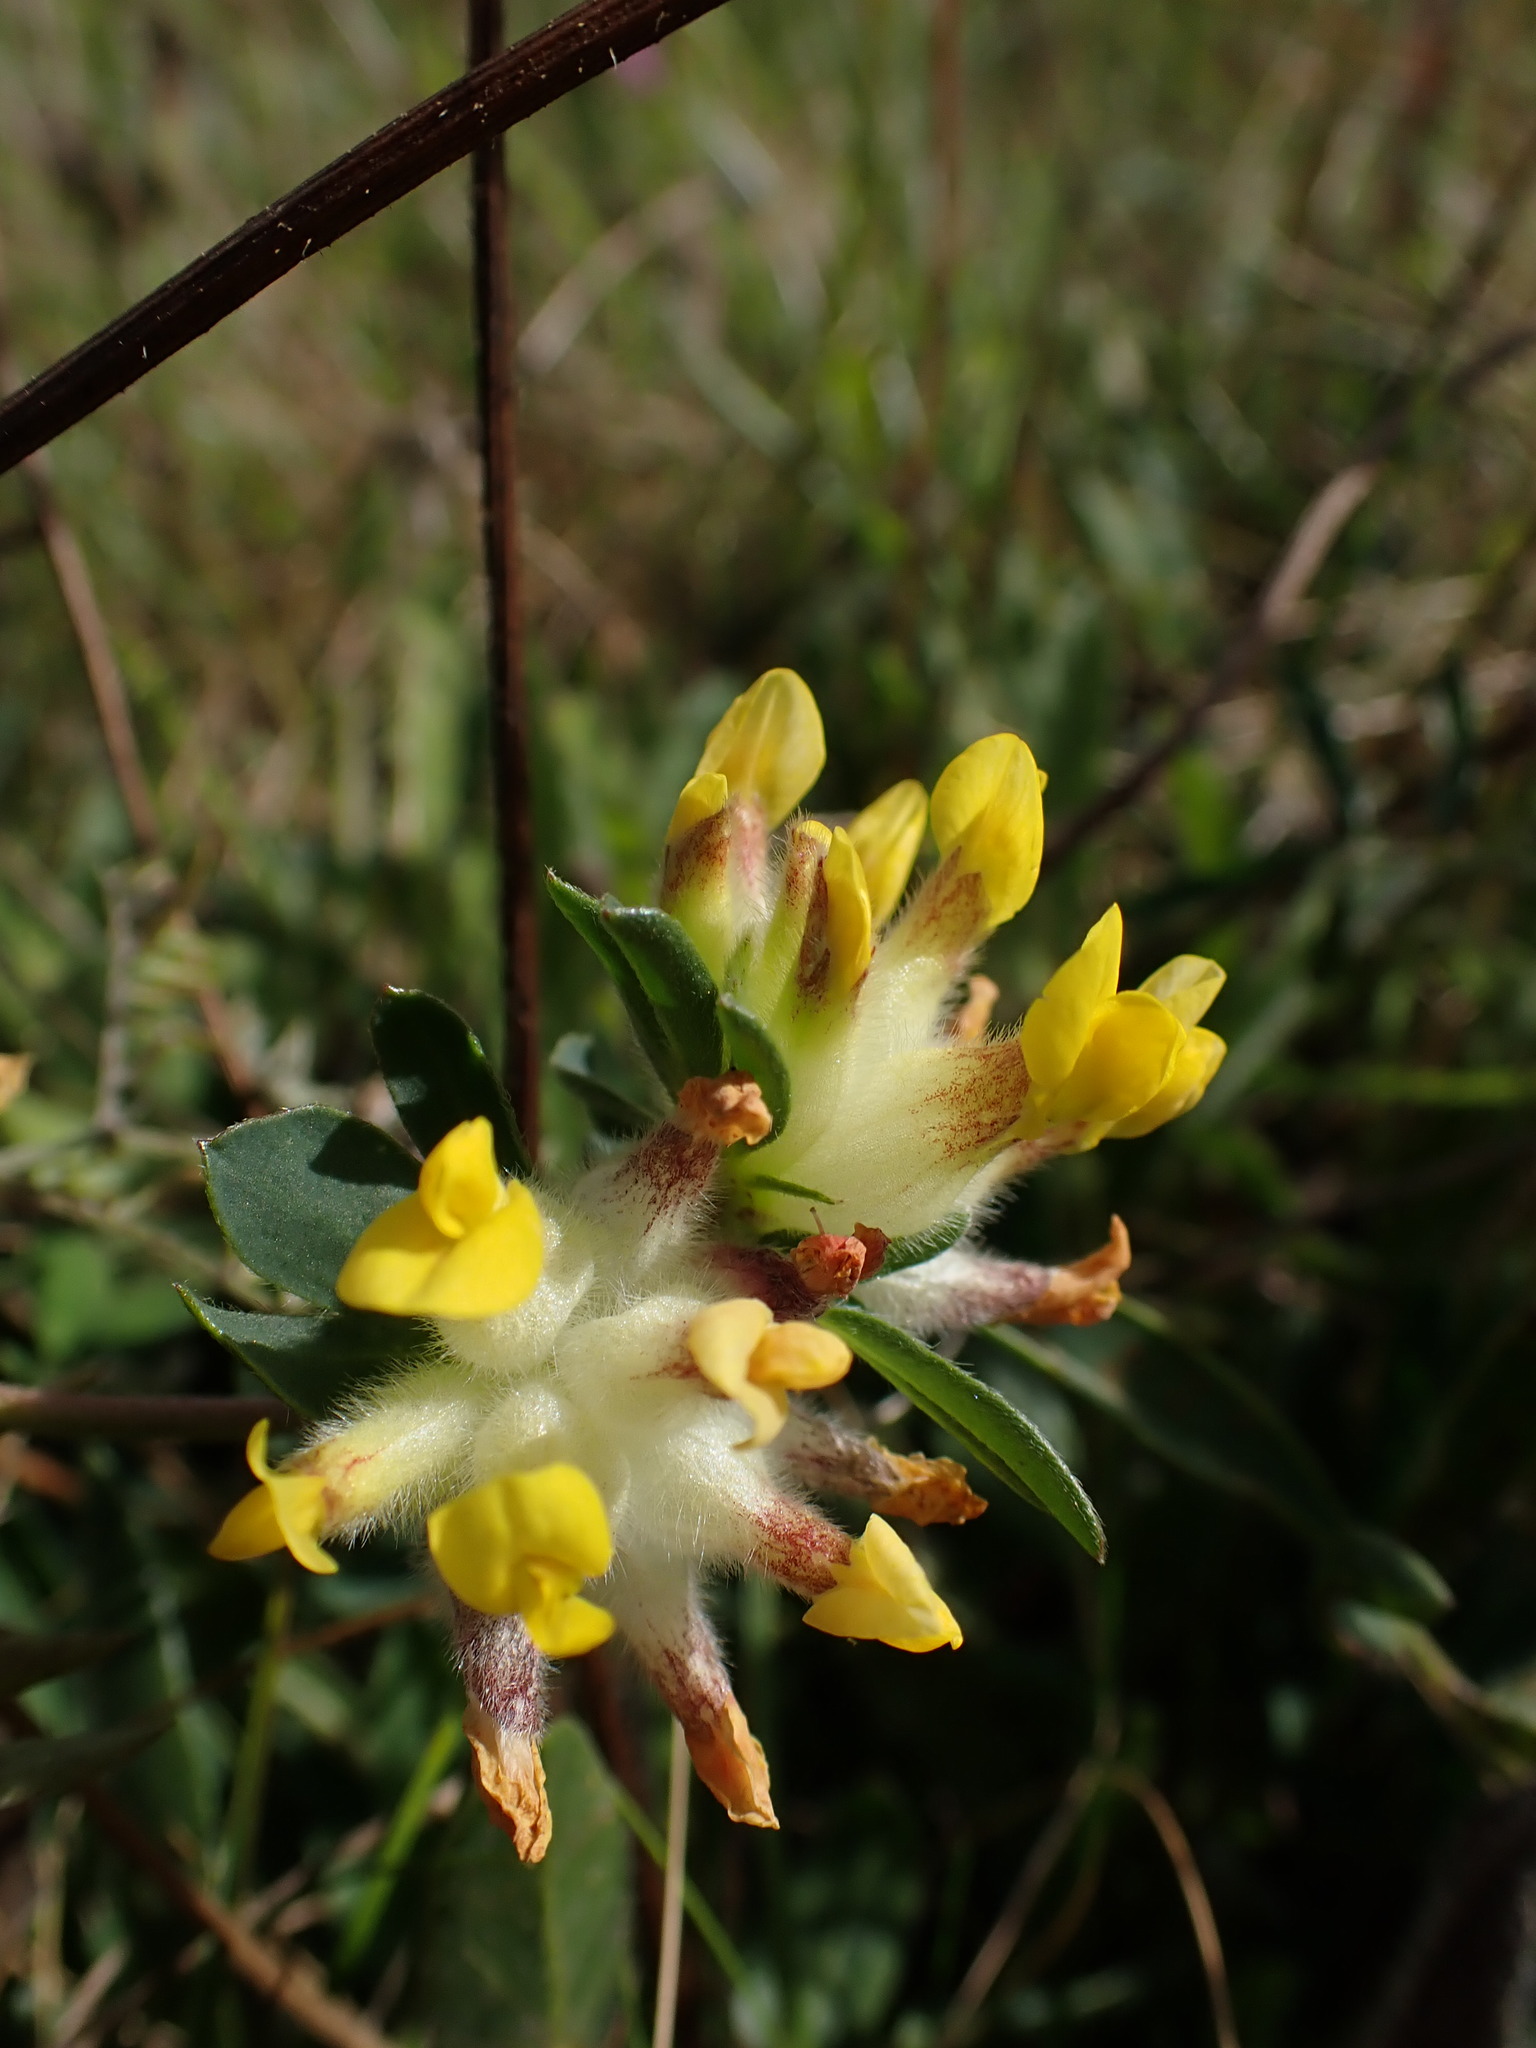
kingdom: Plantae
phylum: Tracheophyta
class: Magnoliopsida
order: Fabales
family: Fabaceae
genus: Anthyllis
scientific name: Anthyllis vulneraria
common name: Kidney vetch
